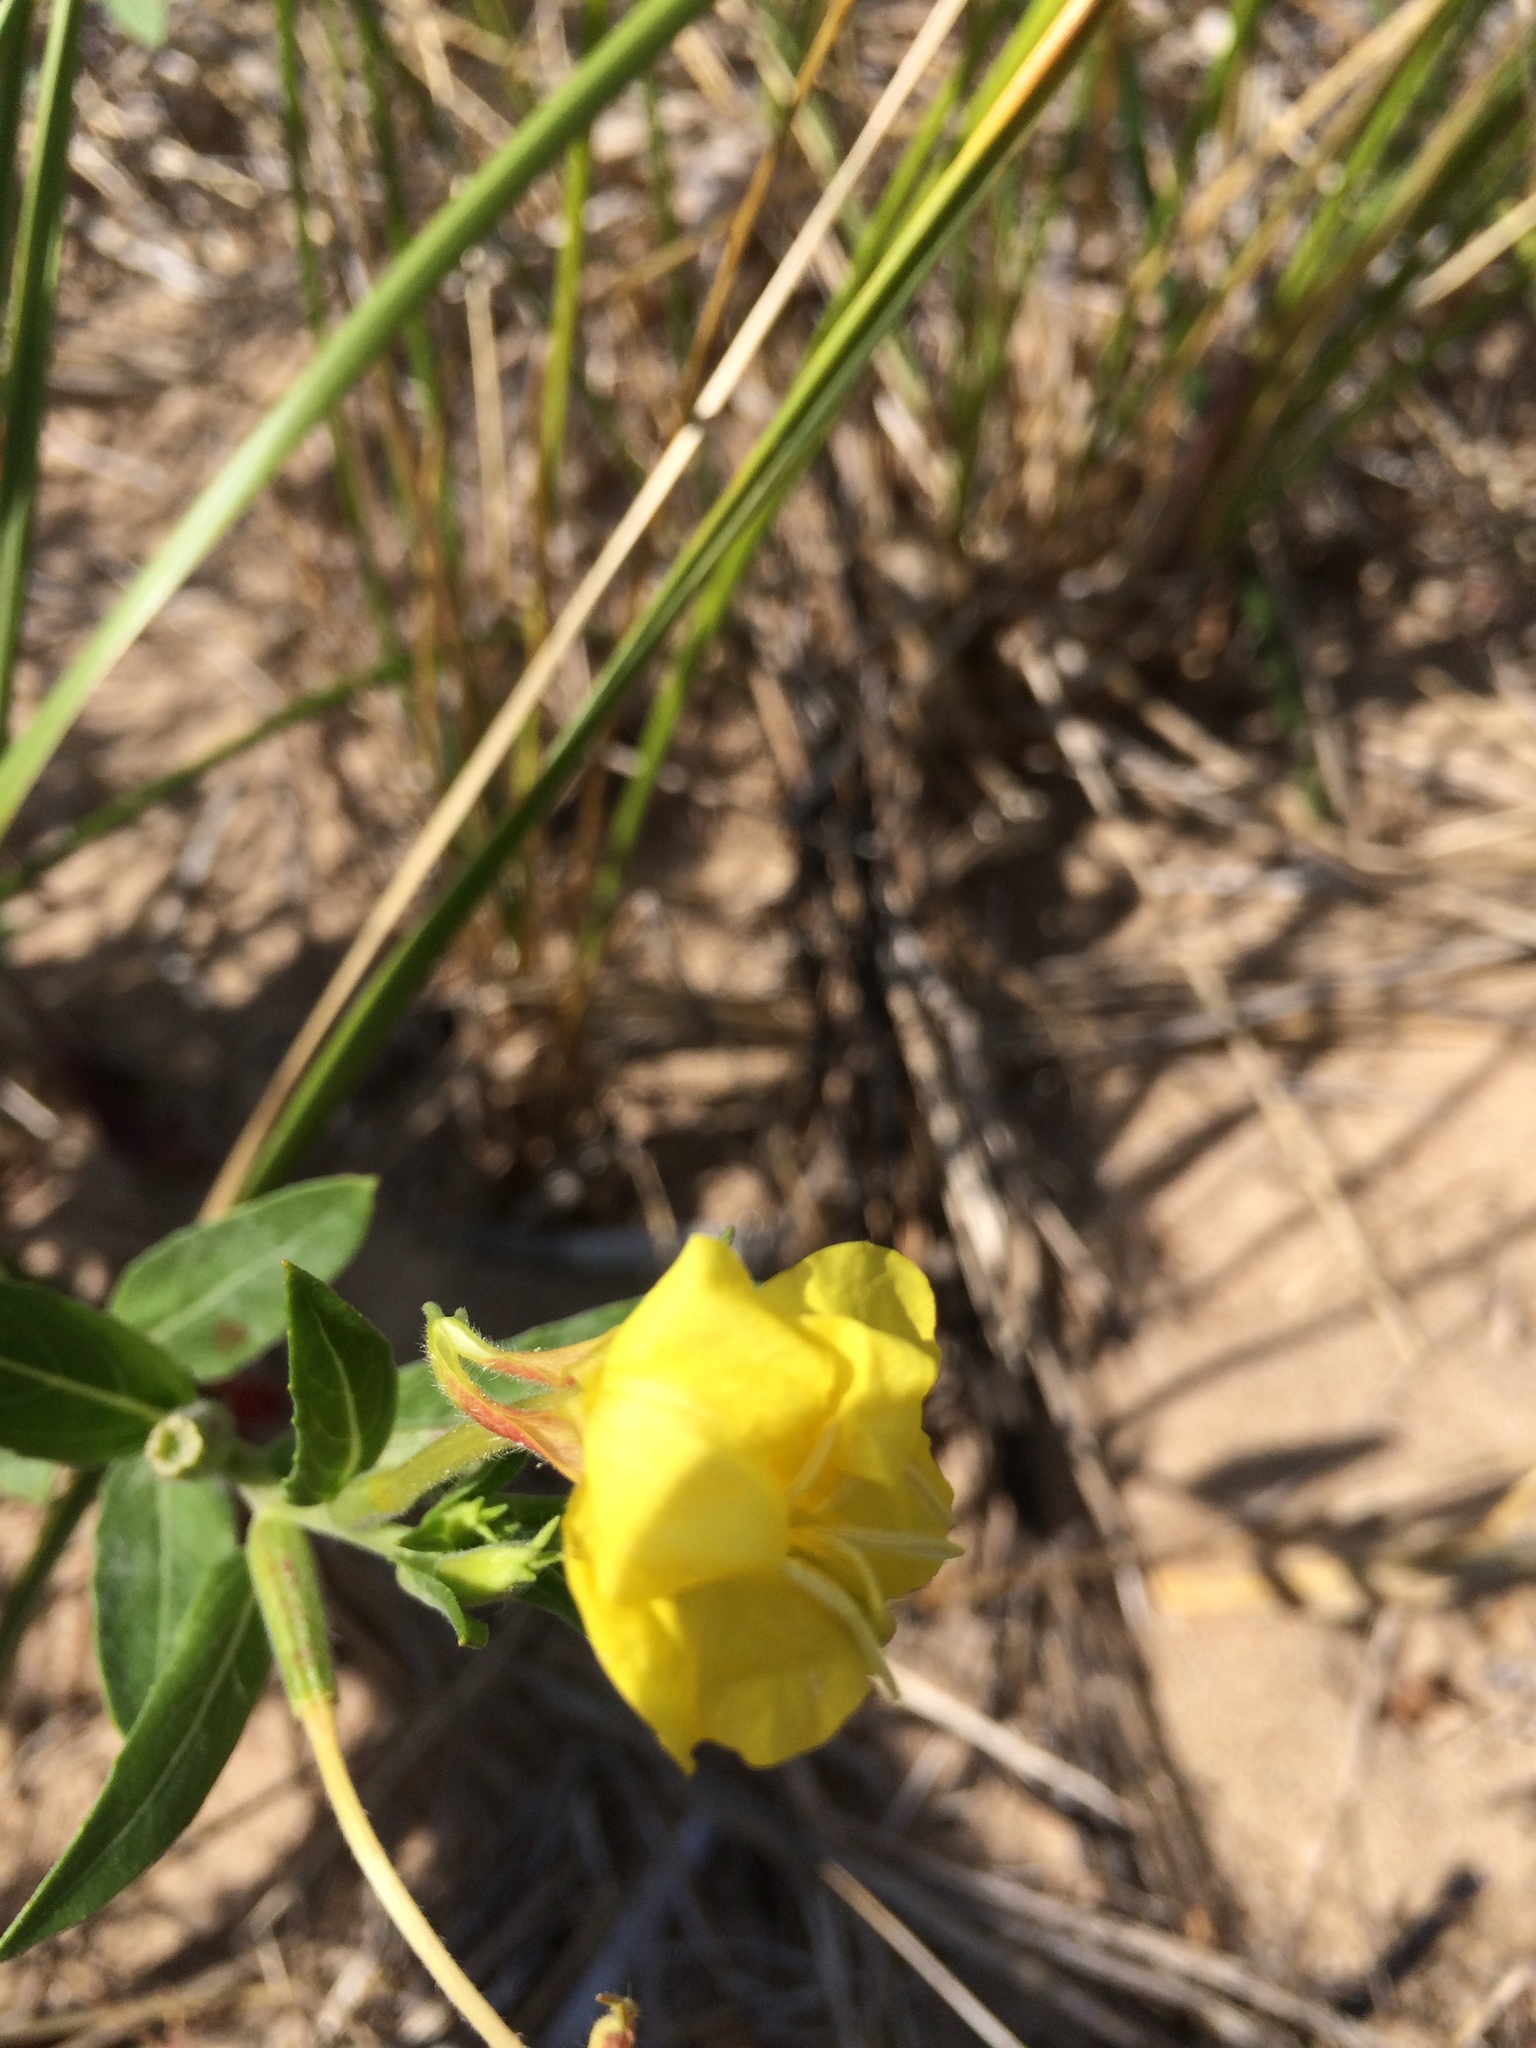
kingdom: Plantae
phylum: Tracheophyta
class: Magnoliopsida
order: Myrtales
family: Onagraceae
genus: Oenothera
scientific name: Oenothera oakesiana
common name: Oakes' evening-primrose
